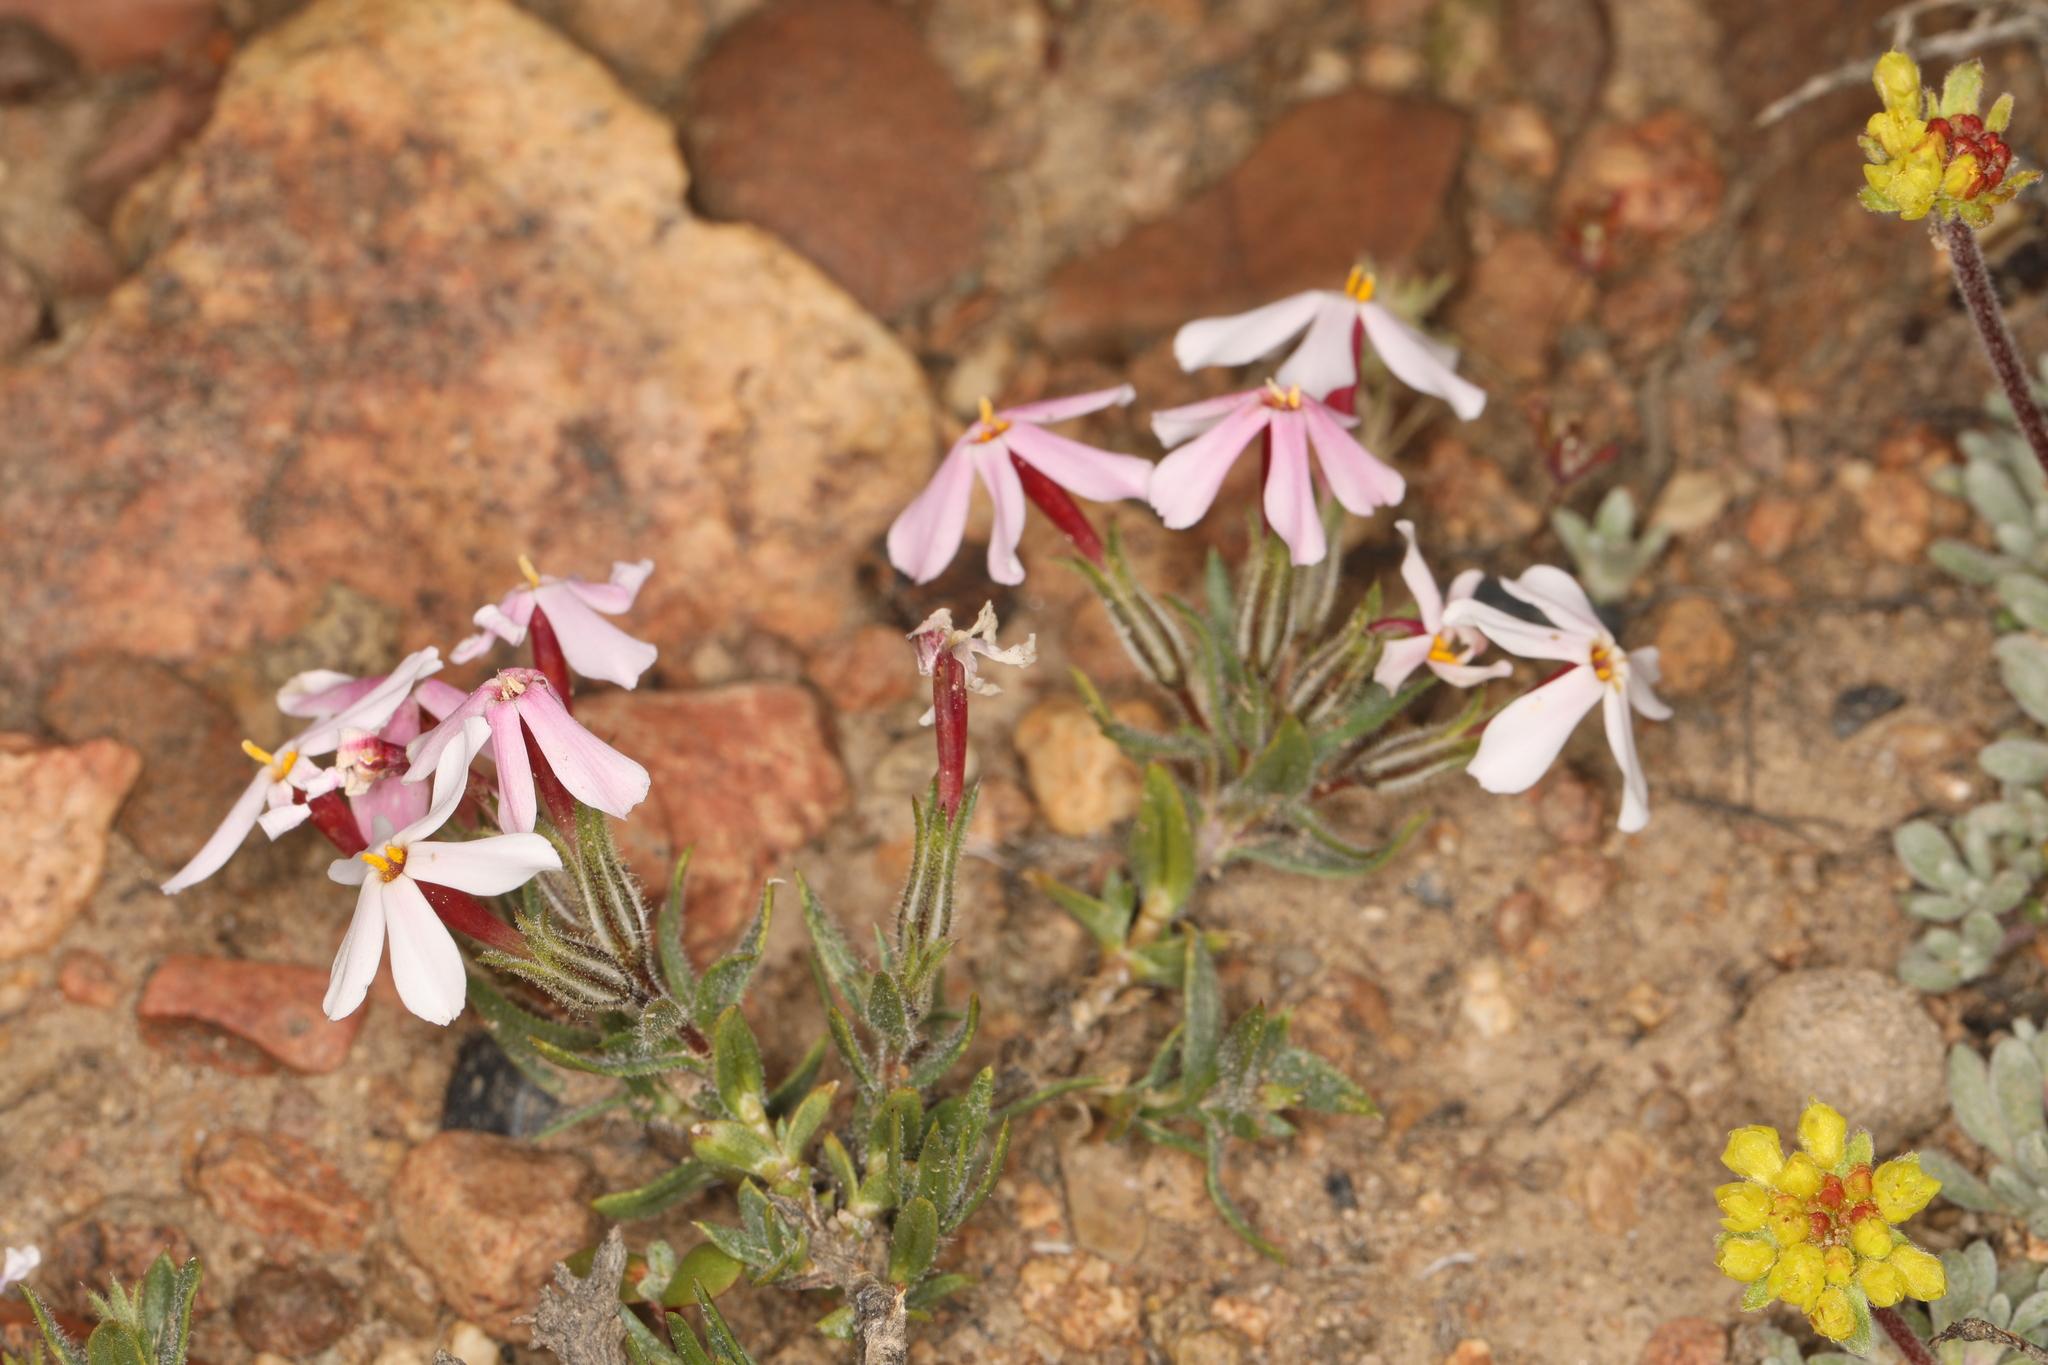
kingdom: Plantae
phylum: Tracheophyta
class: Magnoliopsida
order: Ericales
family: Polemoniaceae
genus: Phlox
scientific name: Phlox longifolia
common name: Longleaf phlox
